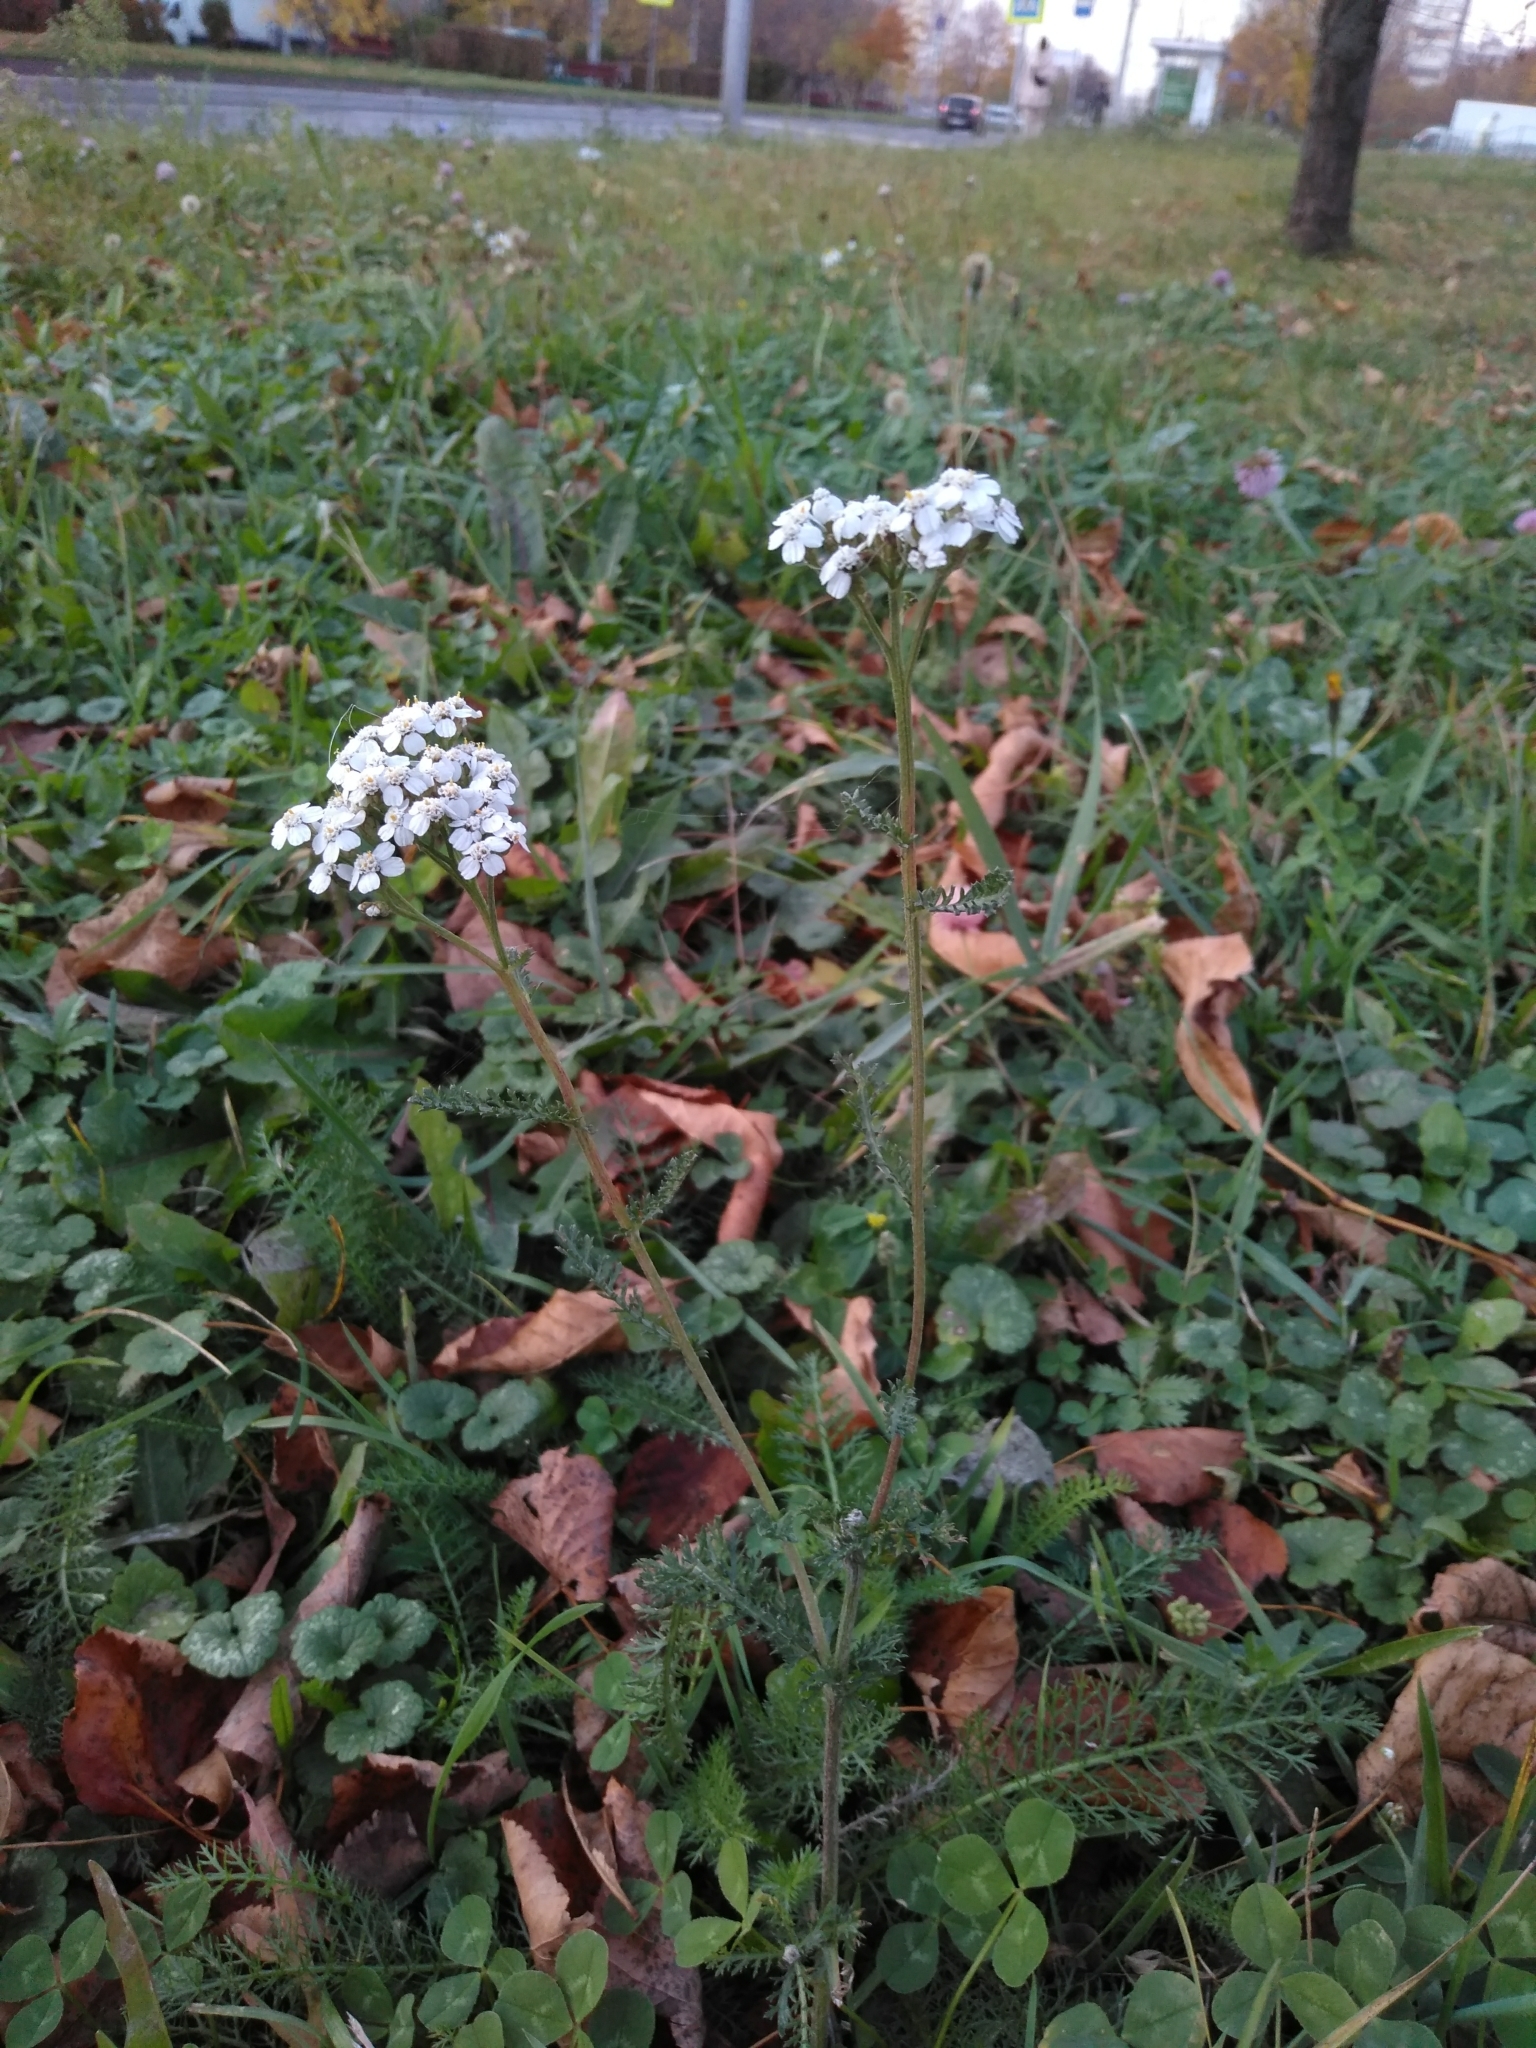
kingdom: Plantae
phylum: Tracheophyta
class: Magnoliopsida
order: Asterales
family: Asteraceae
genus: Achillea
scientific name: Achillea millefolium
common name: Yarrow
